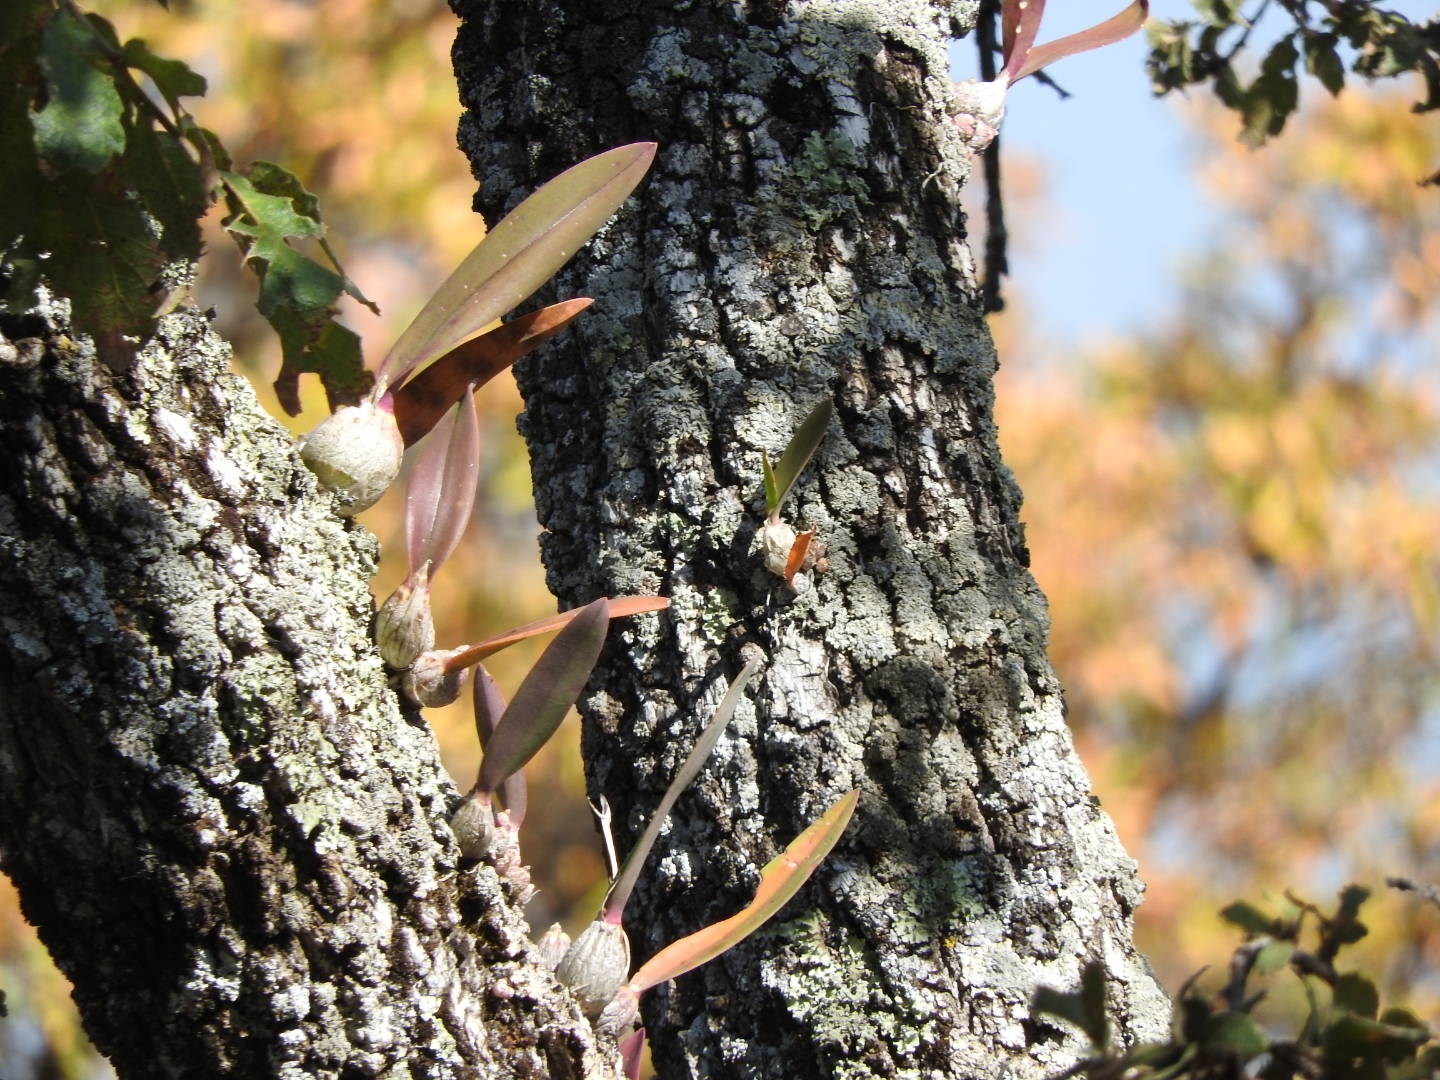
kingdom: Plantae
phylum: Tracheophyta
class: Liliopsida
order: Asparagales
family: Orchidaceae
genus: Laelia
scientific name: Laelia speciosa
